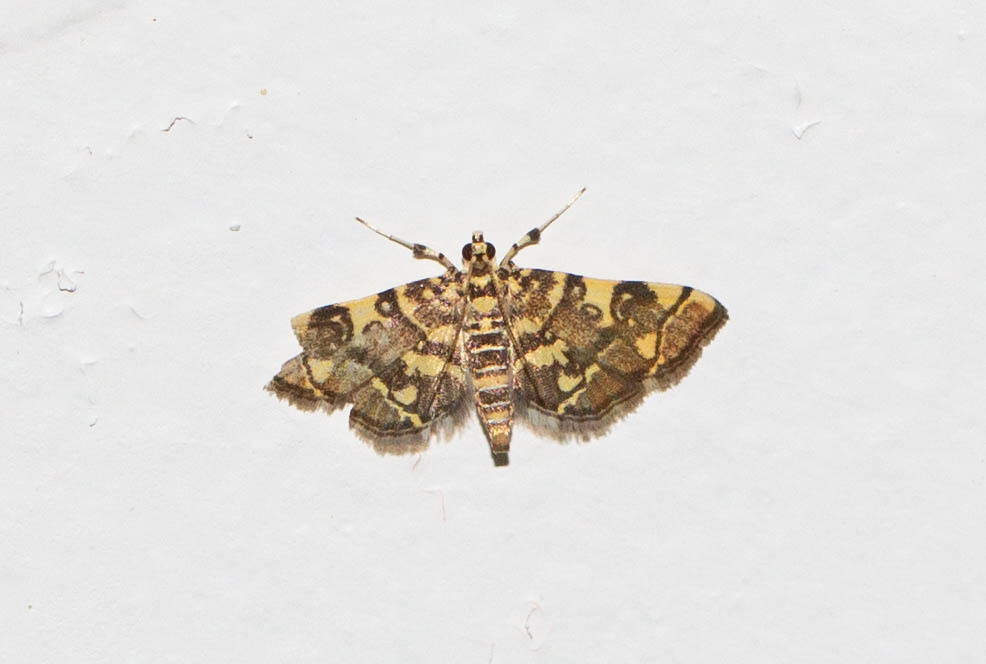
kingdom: Animalia
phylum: Arthropoda
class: Insecta
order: Lepidoptera
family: Crambidae
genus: Apogeshna
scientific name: Apogeshna stenialis
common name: Checkered apogeshna moth
